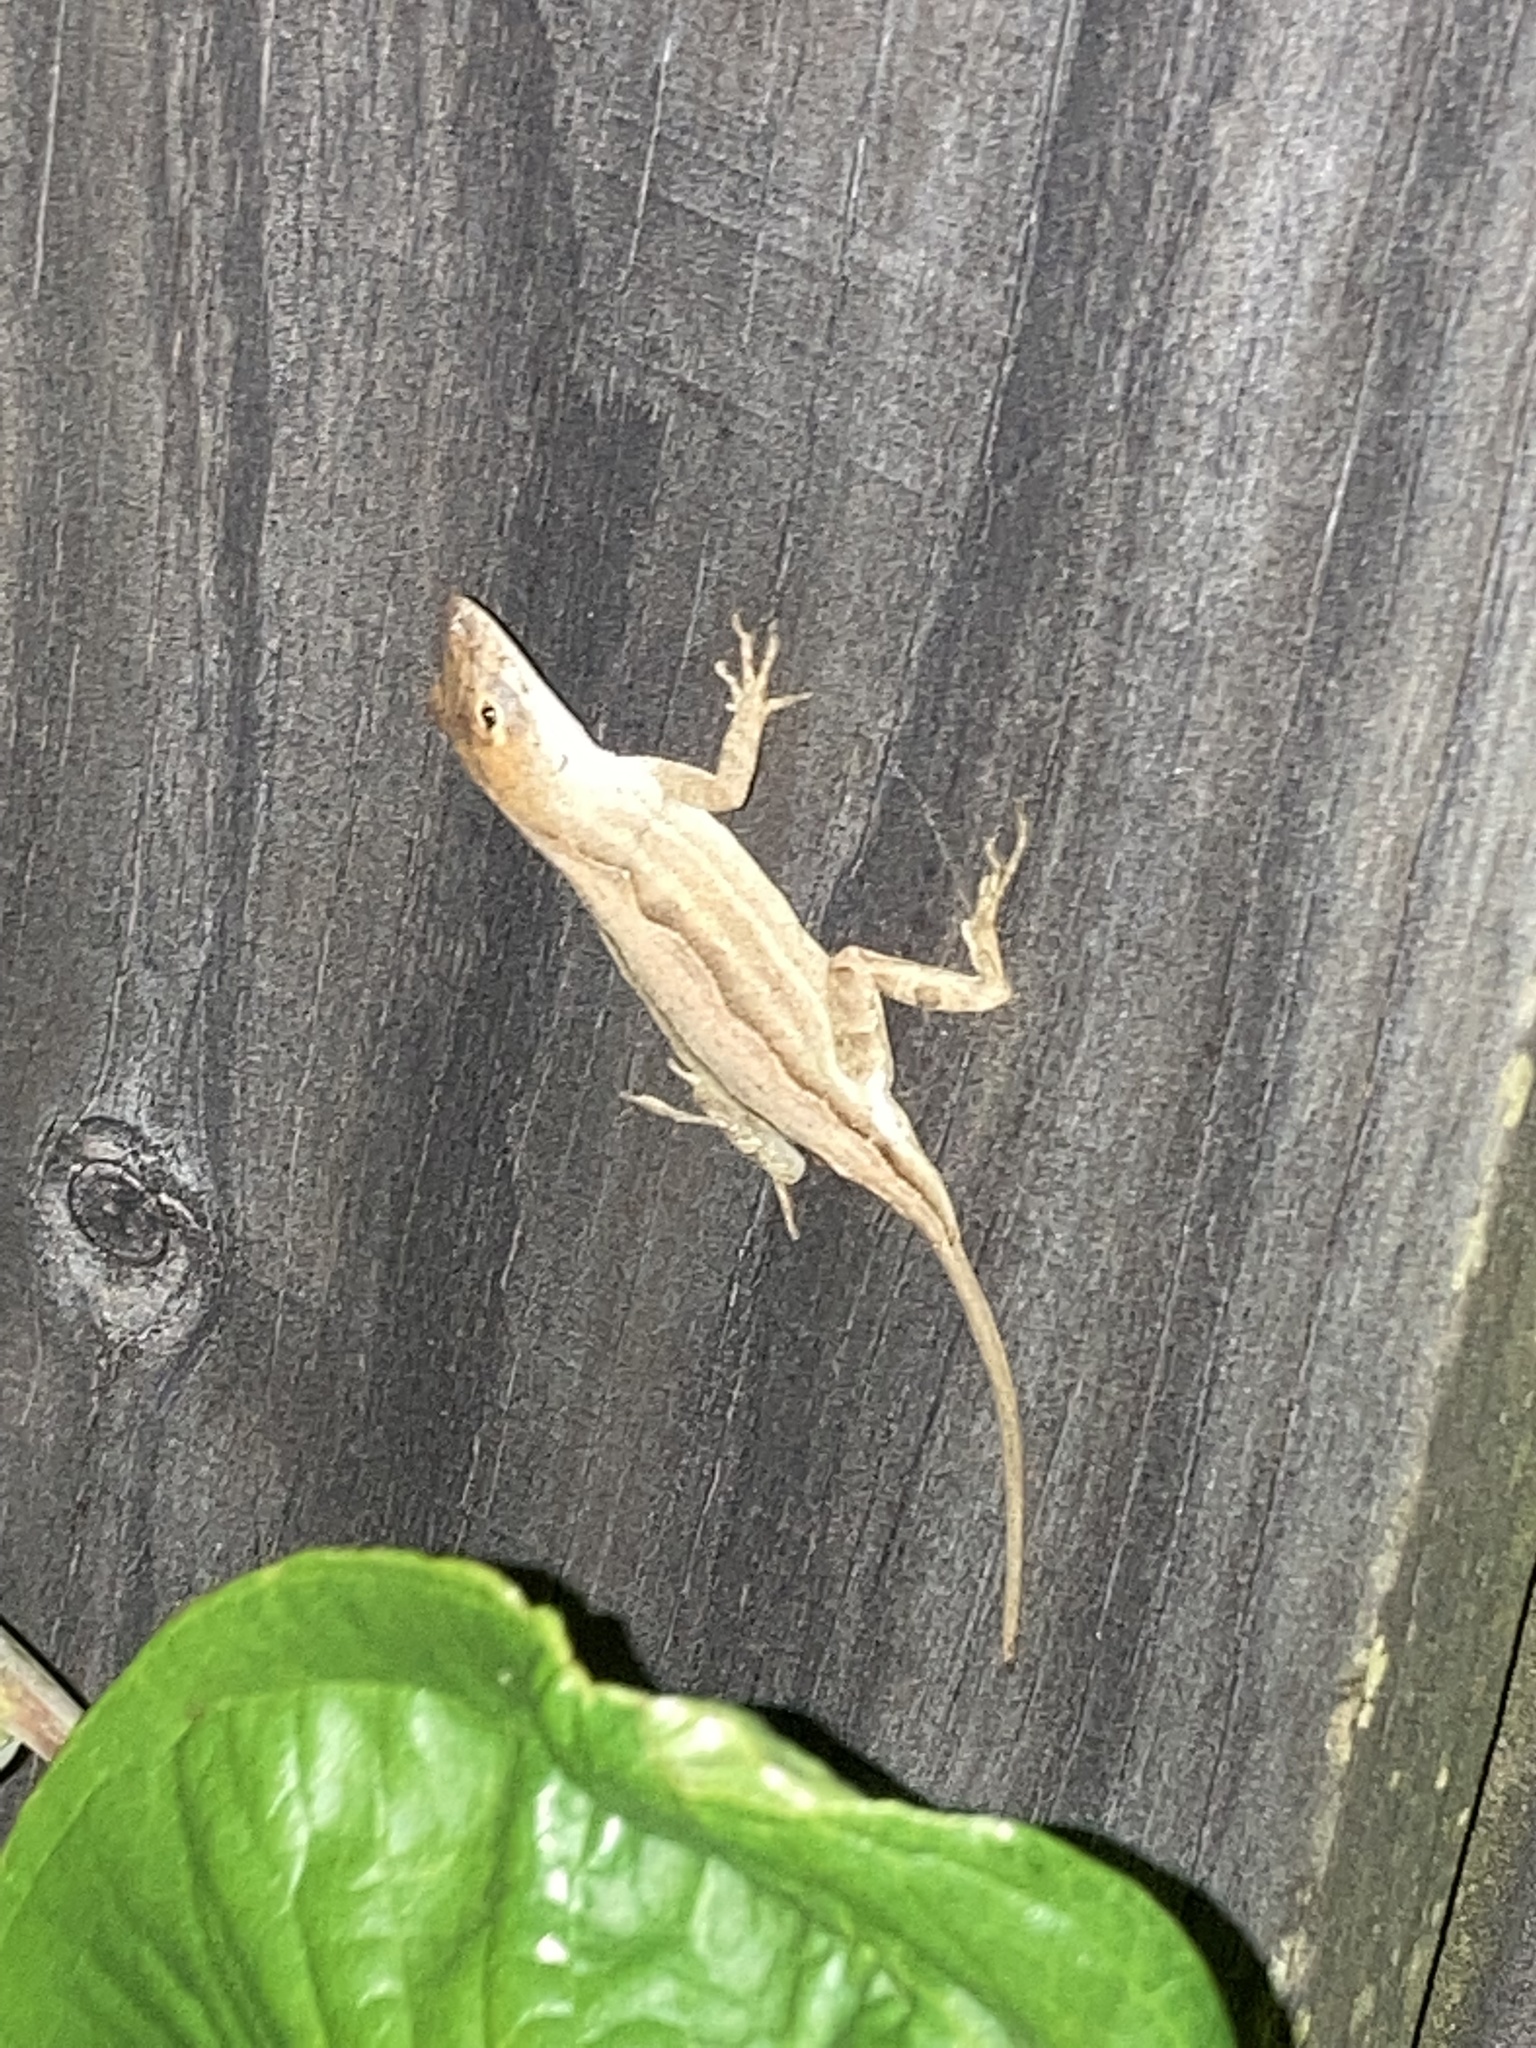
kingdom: Animalia
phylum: Chordata
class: Squamata
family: Dactyloidae
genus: Anolis
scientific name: Anolis sagrei
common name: Brown anole
